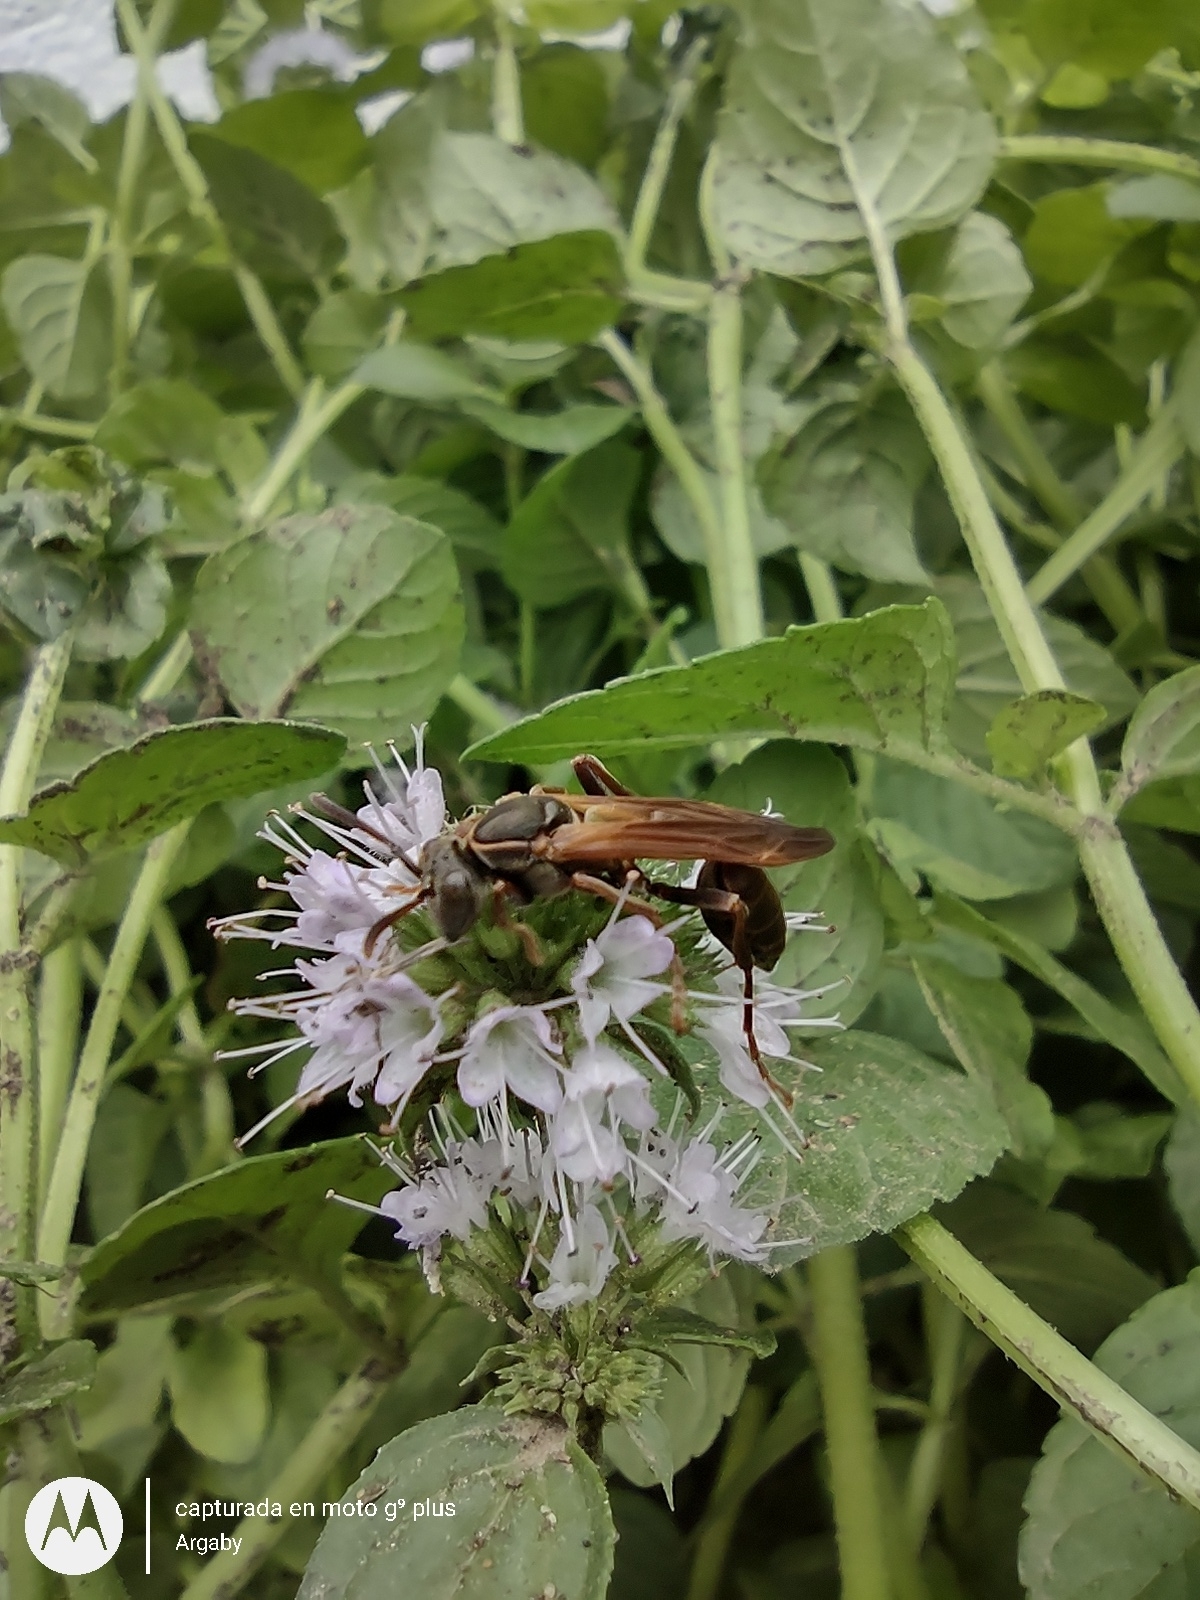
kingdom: Animalia
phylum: Arthropoda
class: Insecta
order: Hymenoptera
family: Vespidae
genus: Mischocyttarus
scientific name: Mischocyttarus drewseni
